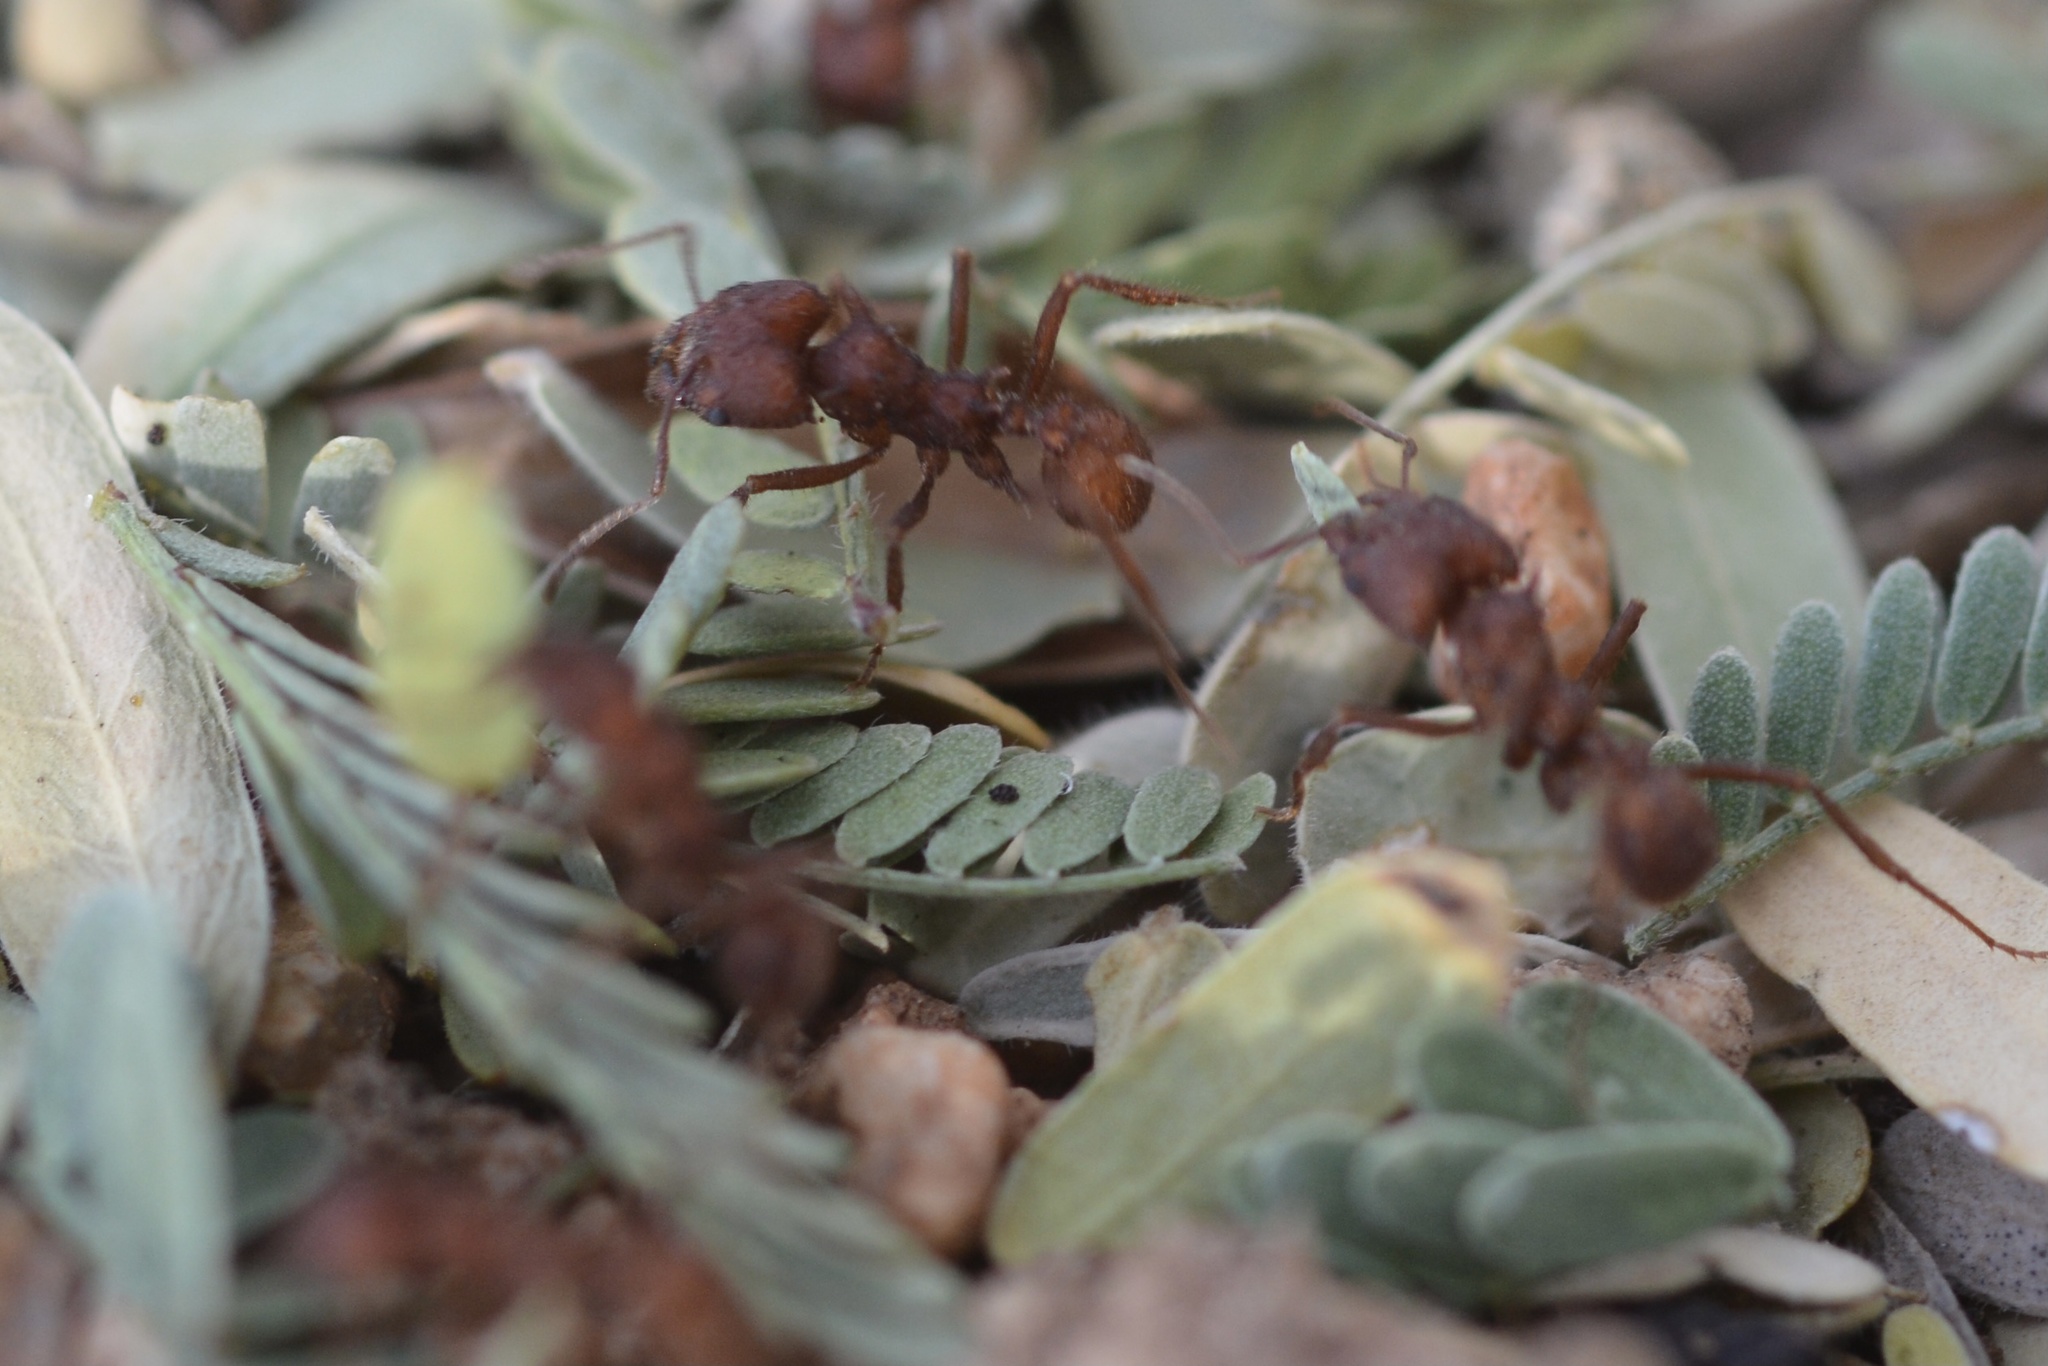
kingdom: Animalia
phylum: Arthropoda
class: Insecta
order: Hymenoptera
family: Formicidae
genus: Acromyrmex
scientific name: Acromyrmex versicolor
